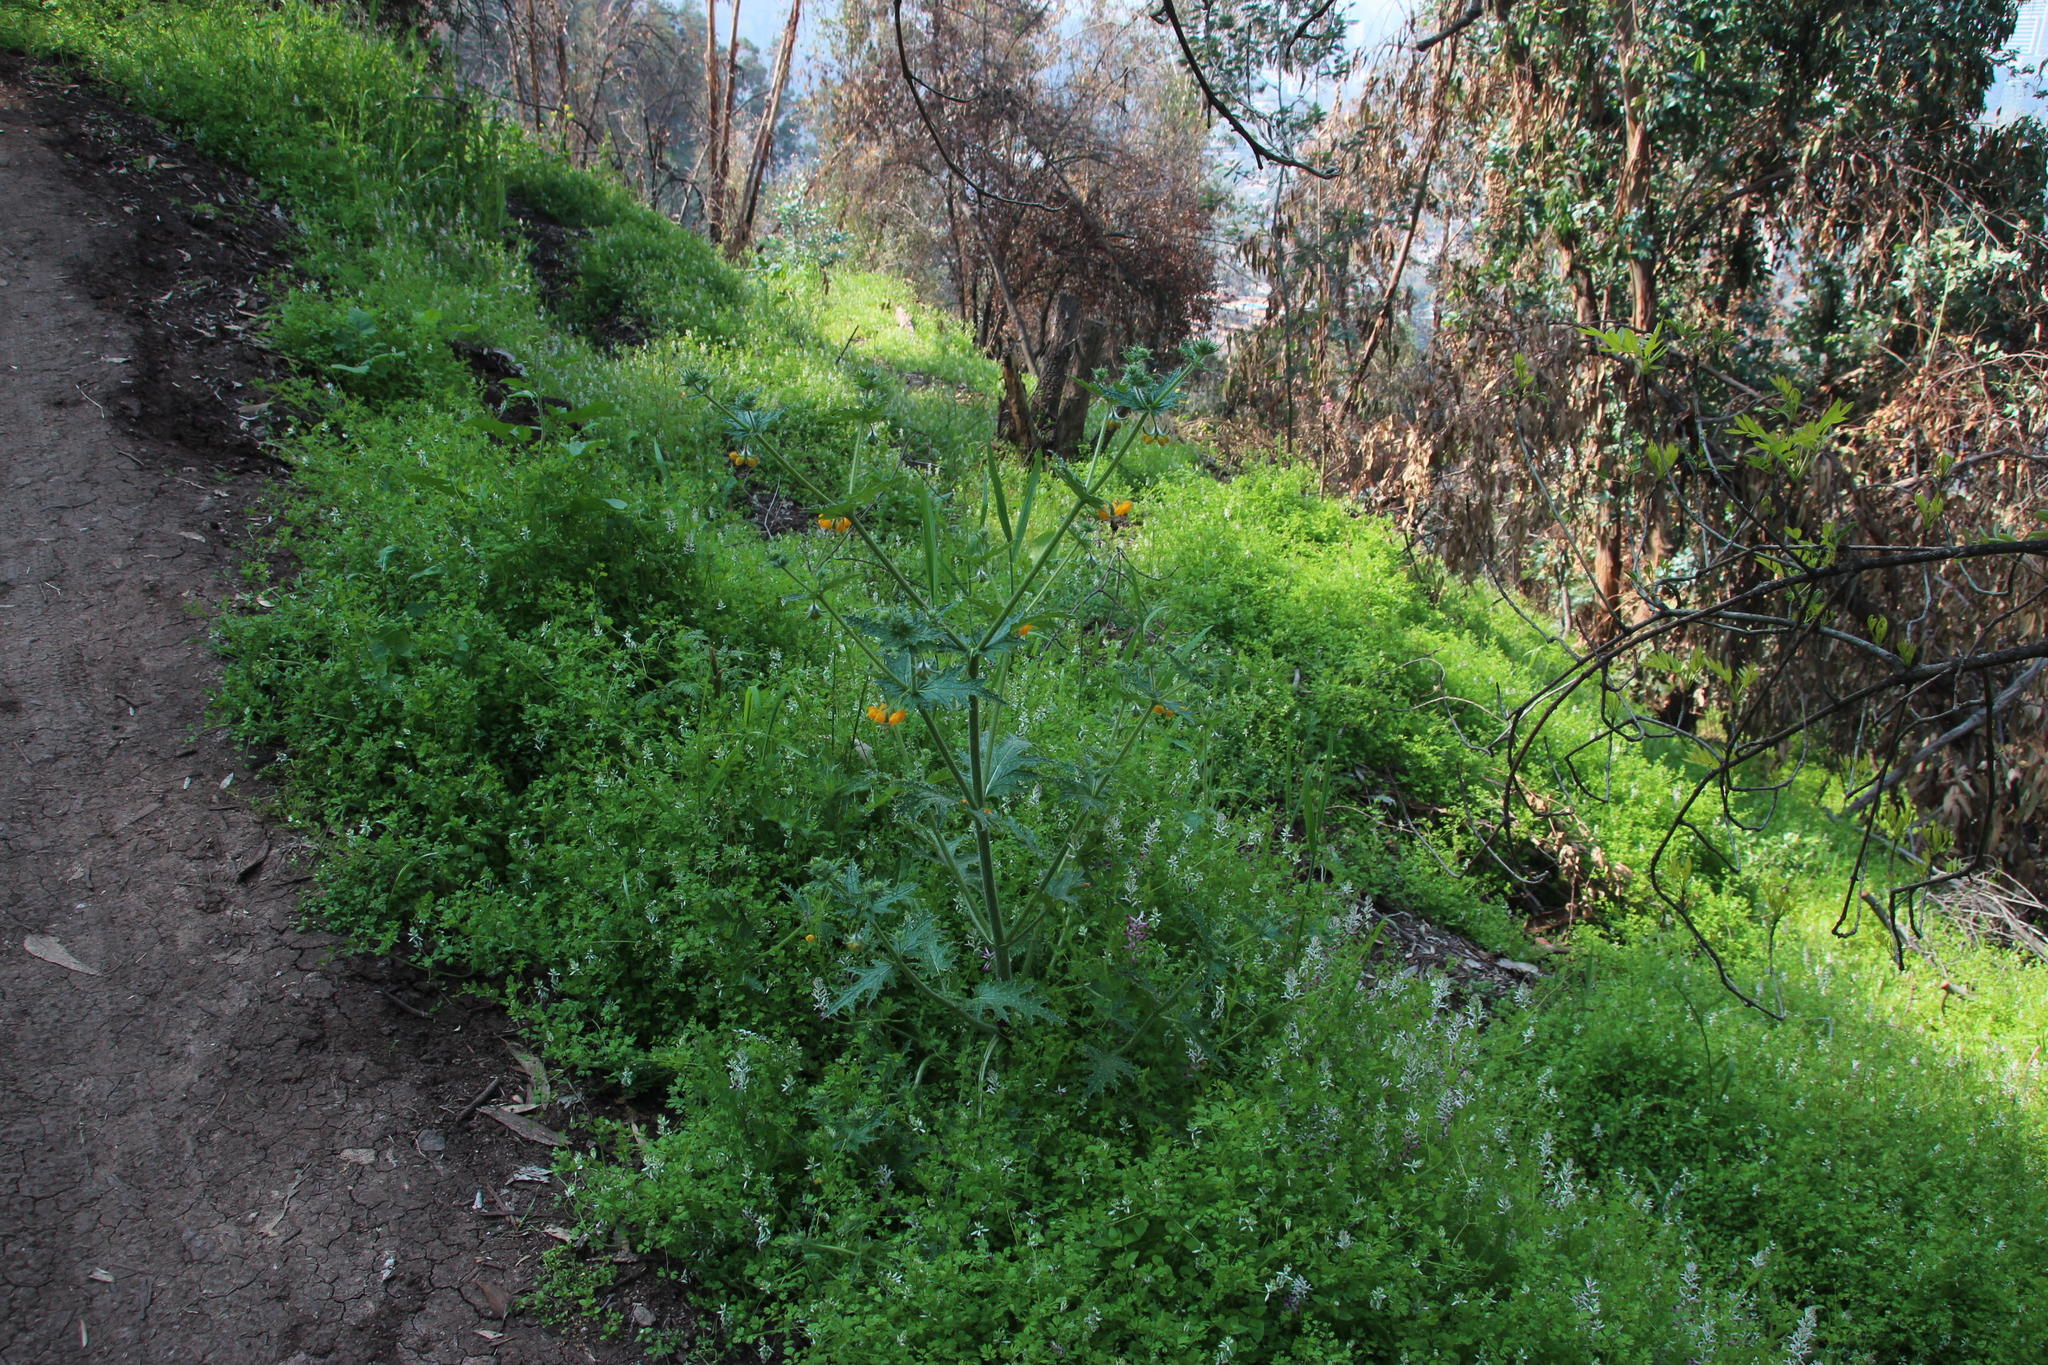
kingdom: Plantae
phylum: Tracheophyta
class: Magnoliopsida
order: Cornales
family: Loasaceae
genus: Loasa
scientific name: Loasa placei
